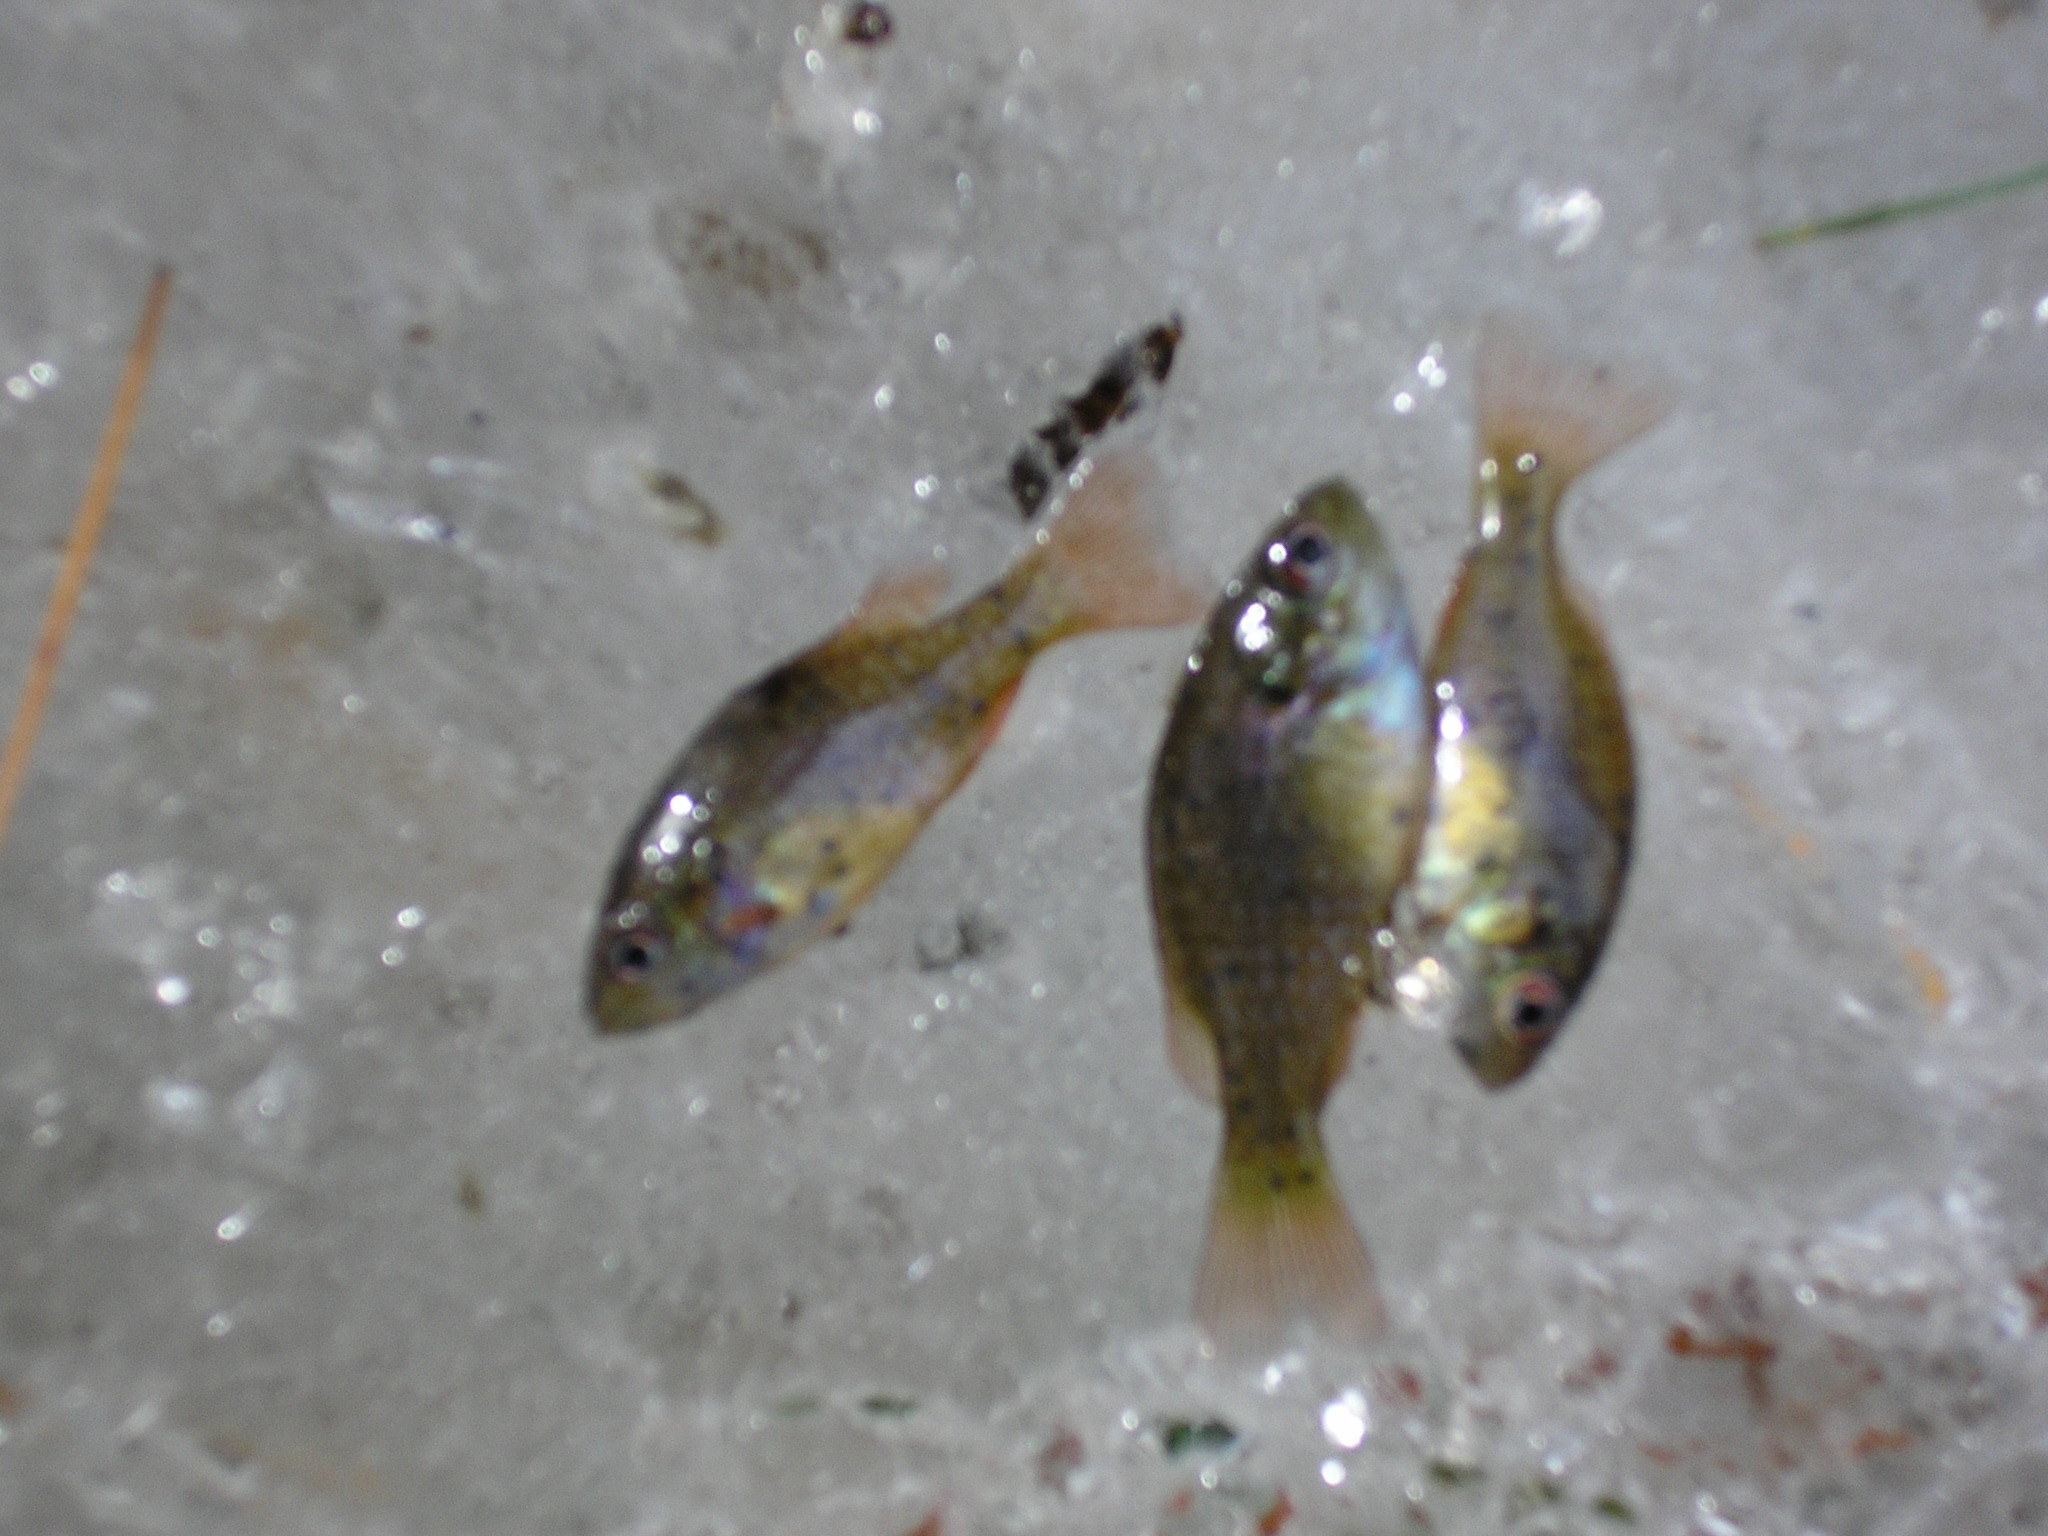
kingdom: Animalia
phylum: Chordata
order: Perciformes
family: Centrarchidae
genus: Lepomis
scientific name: Lepomis cyanellus
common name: Green sunfish
